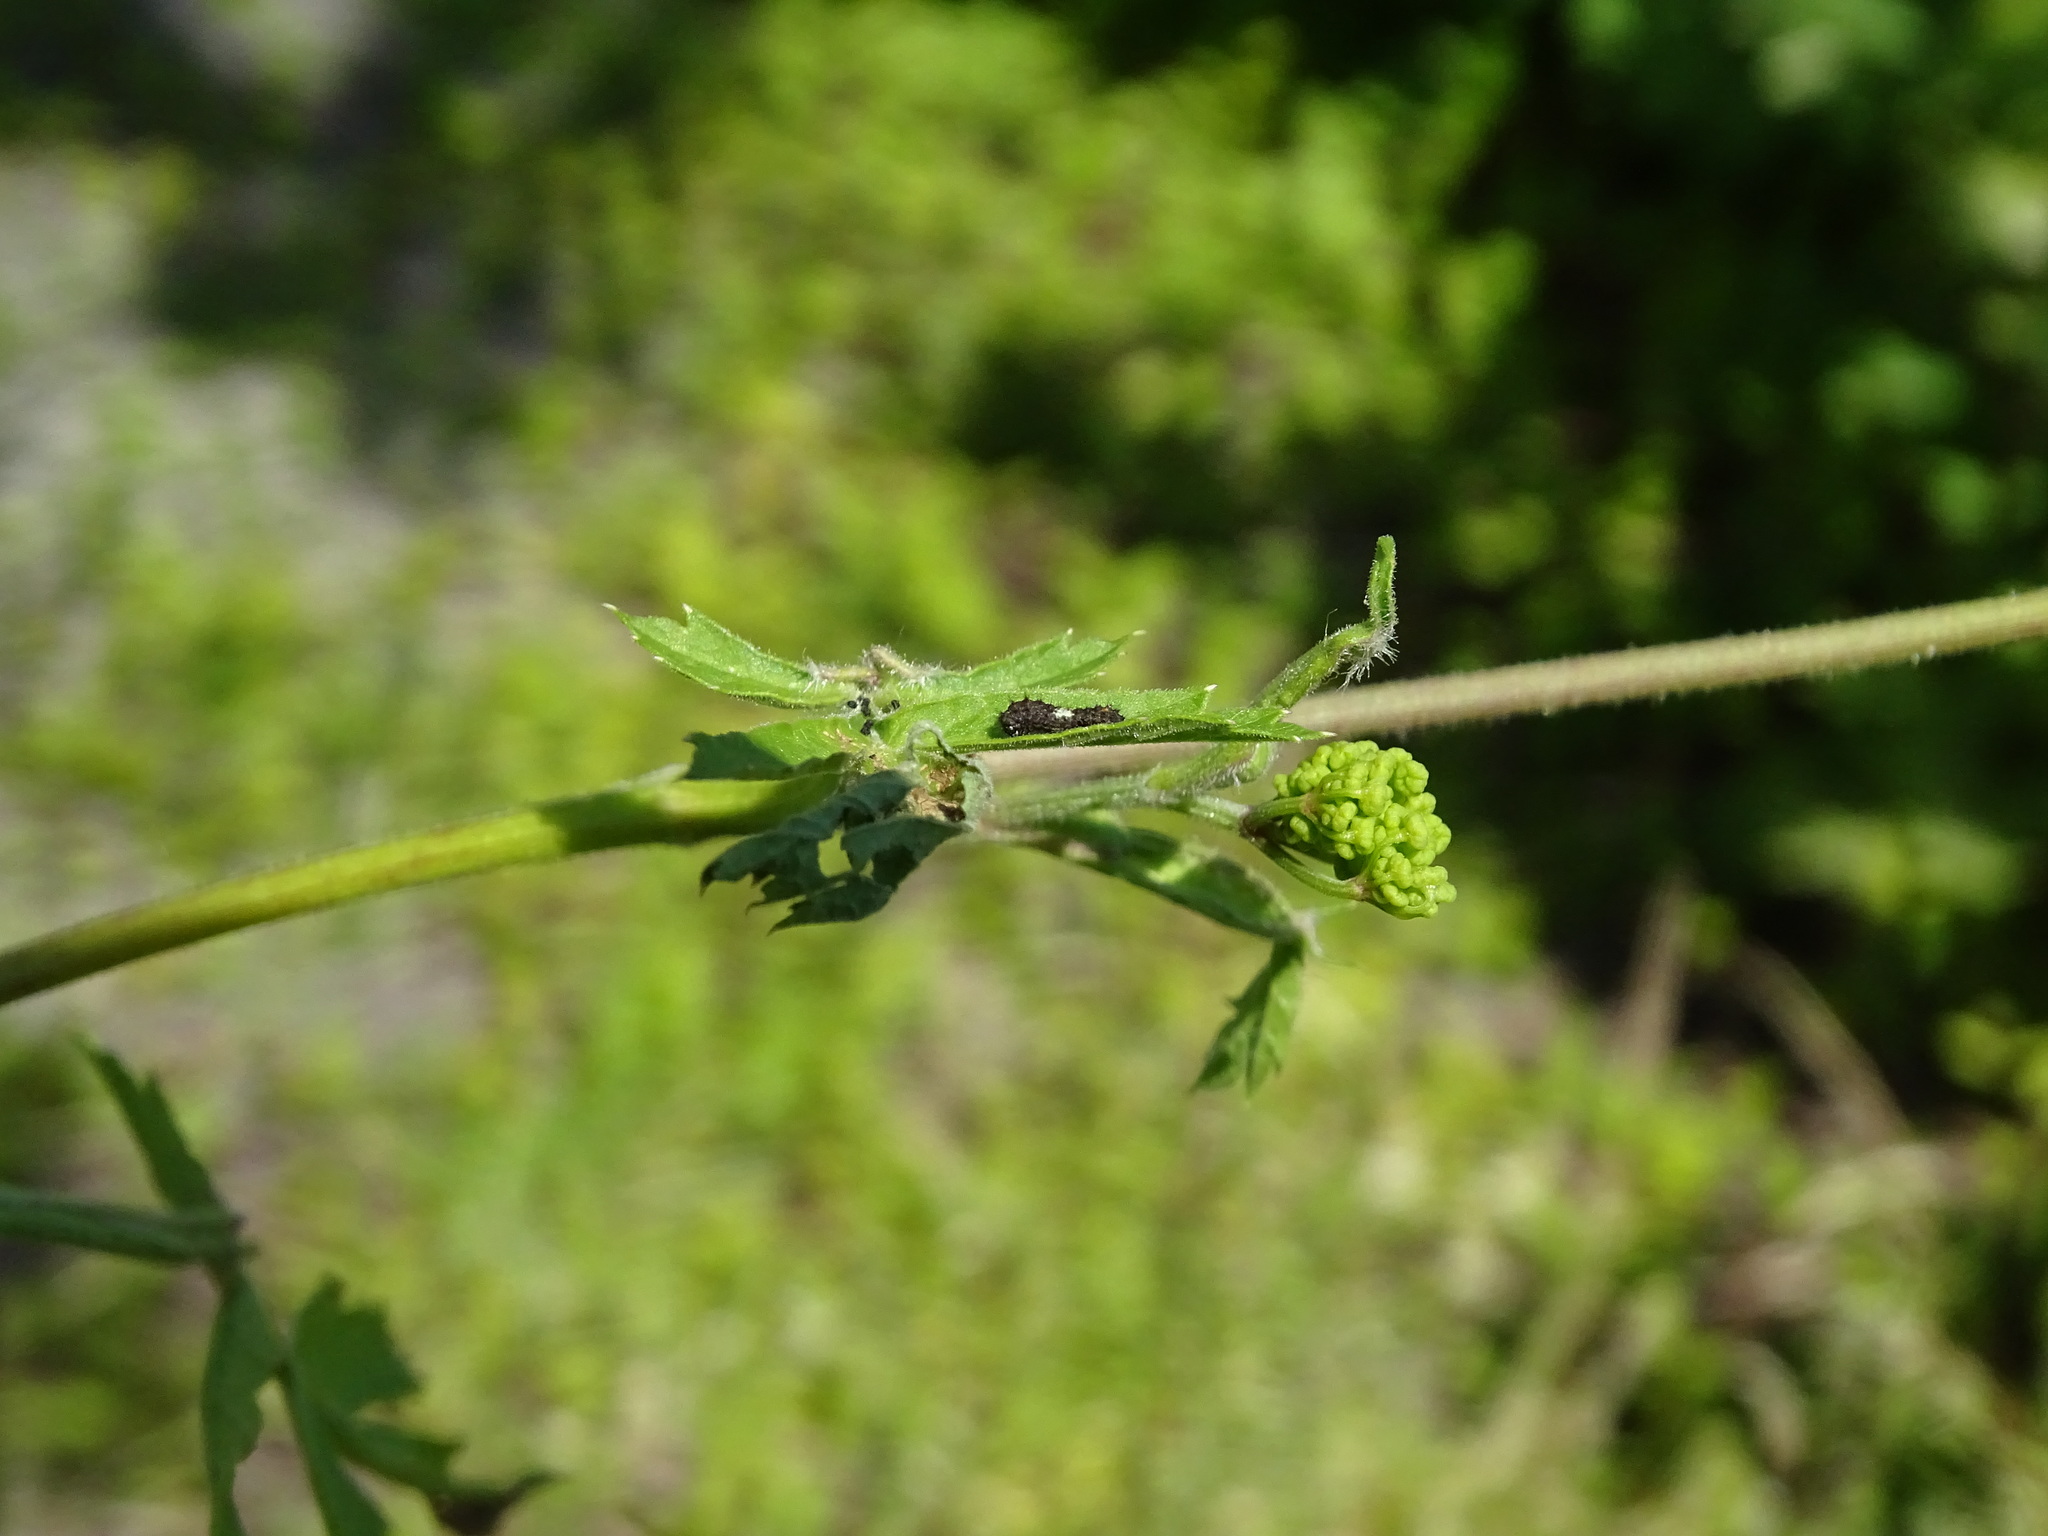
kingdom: Animalia
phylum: Arthropoda
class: Insecta
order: Lepidoptera
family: Papilionidae
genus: Papilio
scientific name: Papilio machaon
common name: Swallowtail
